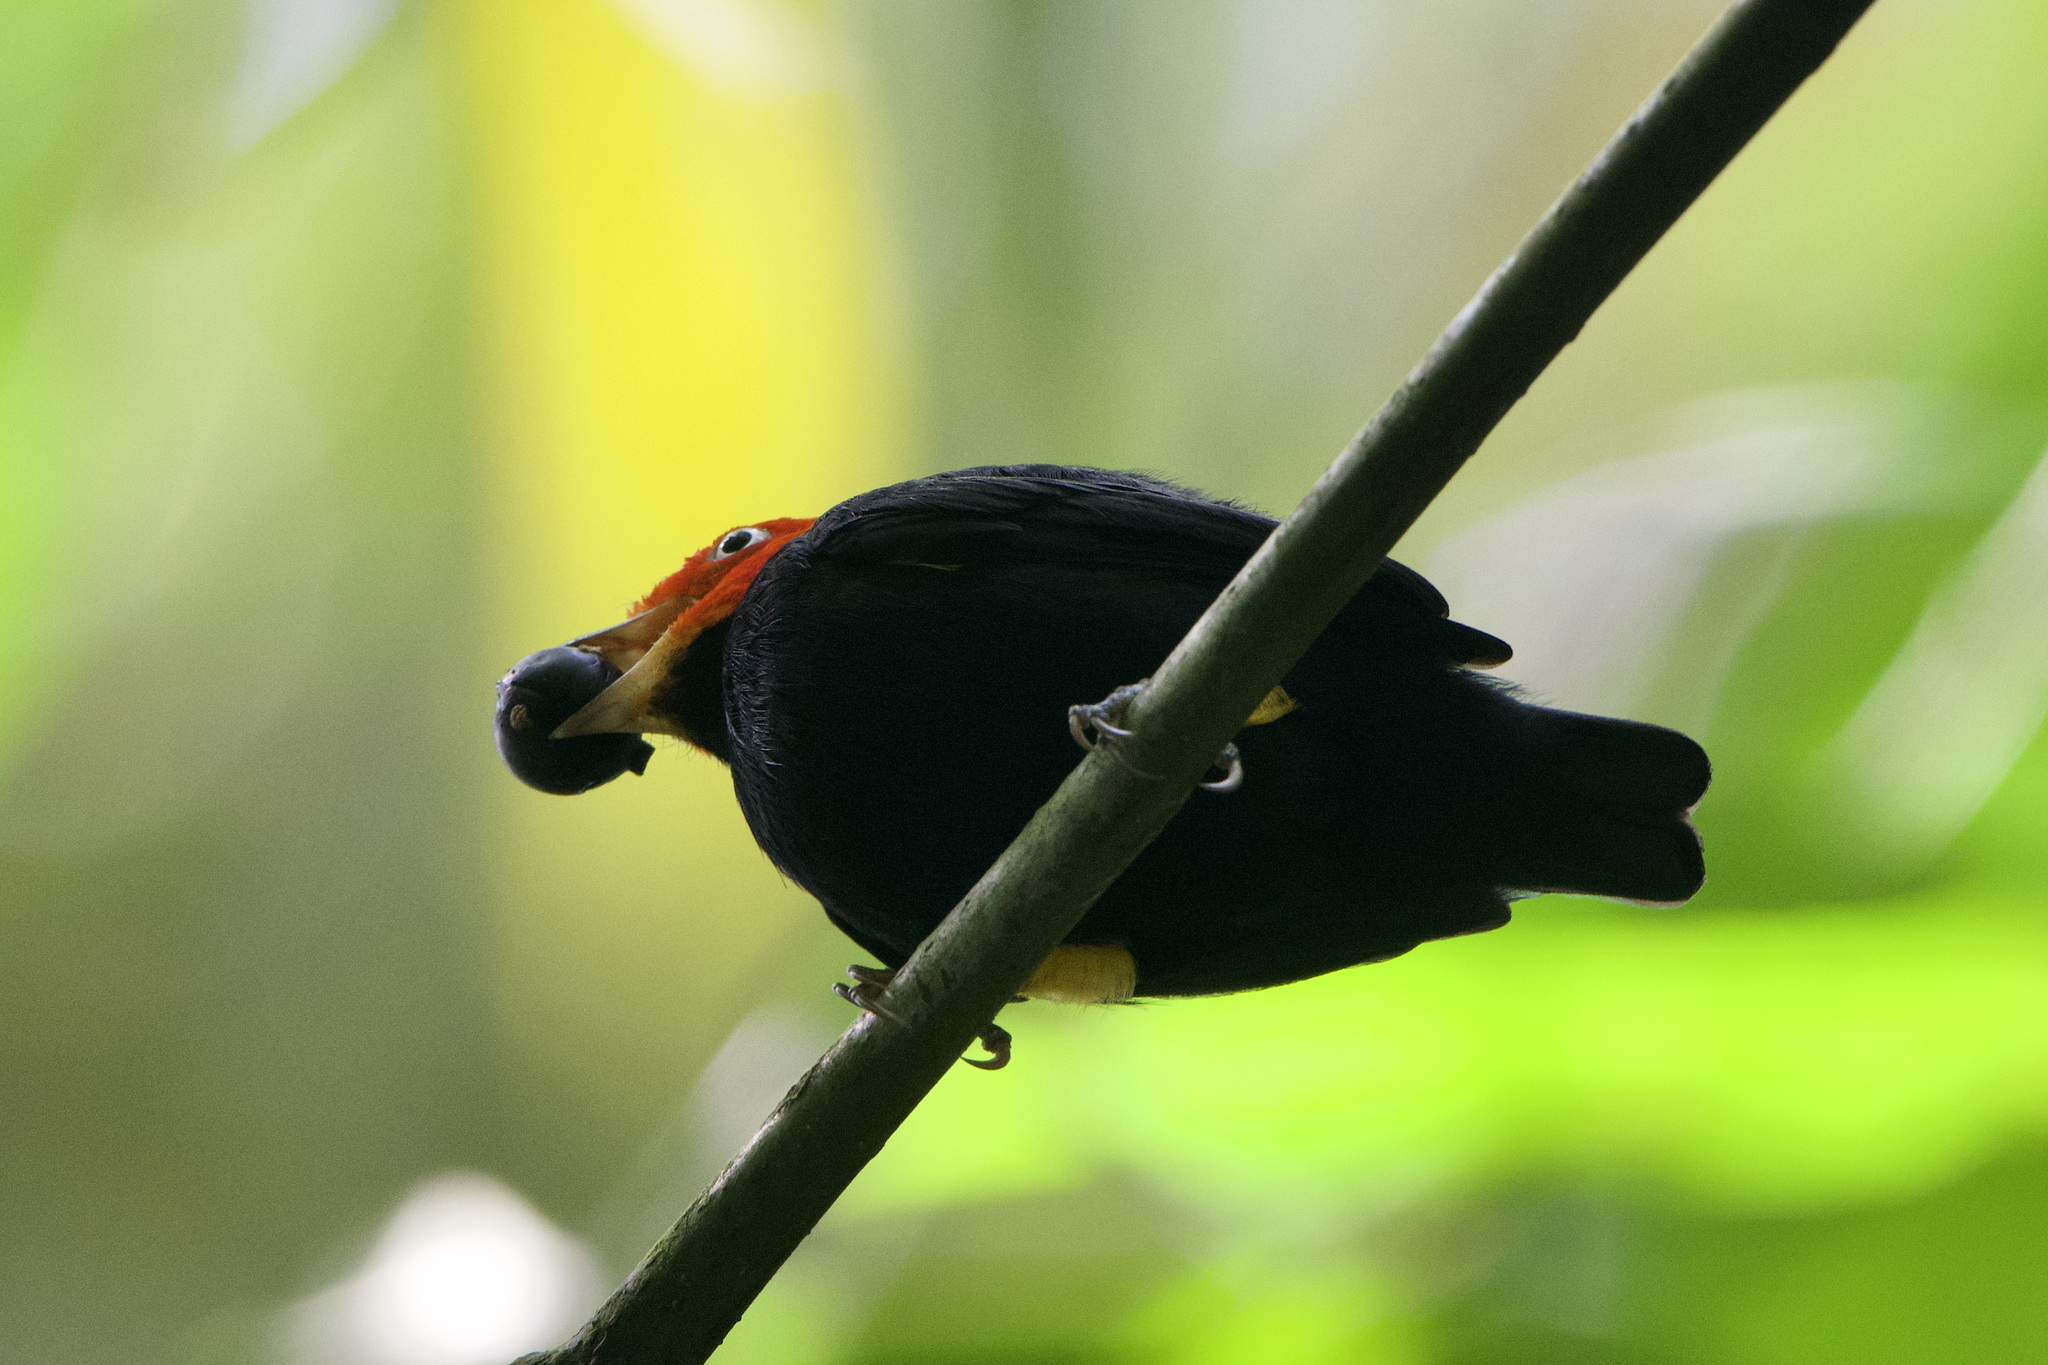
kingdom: Animalia
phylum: Chordata
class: Aves
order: Passeriformes
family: Pipridae
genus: Pipra
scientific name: Pipra mentalis
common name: Red-capped manakin
